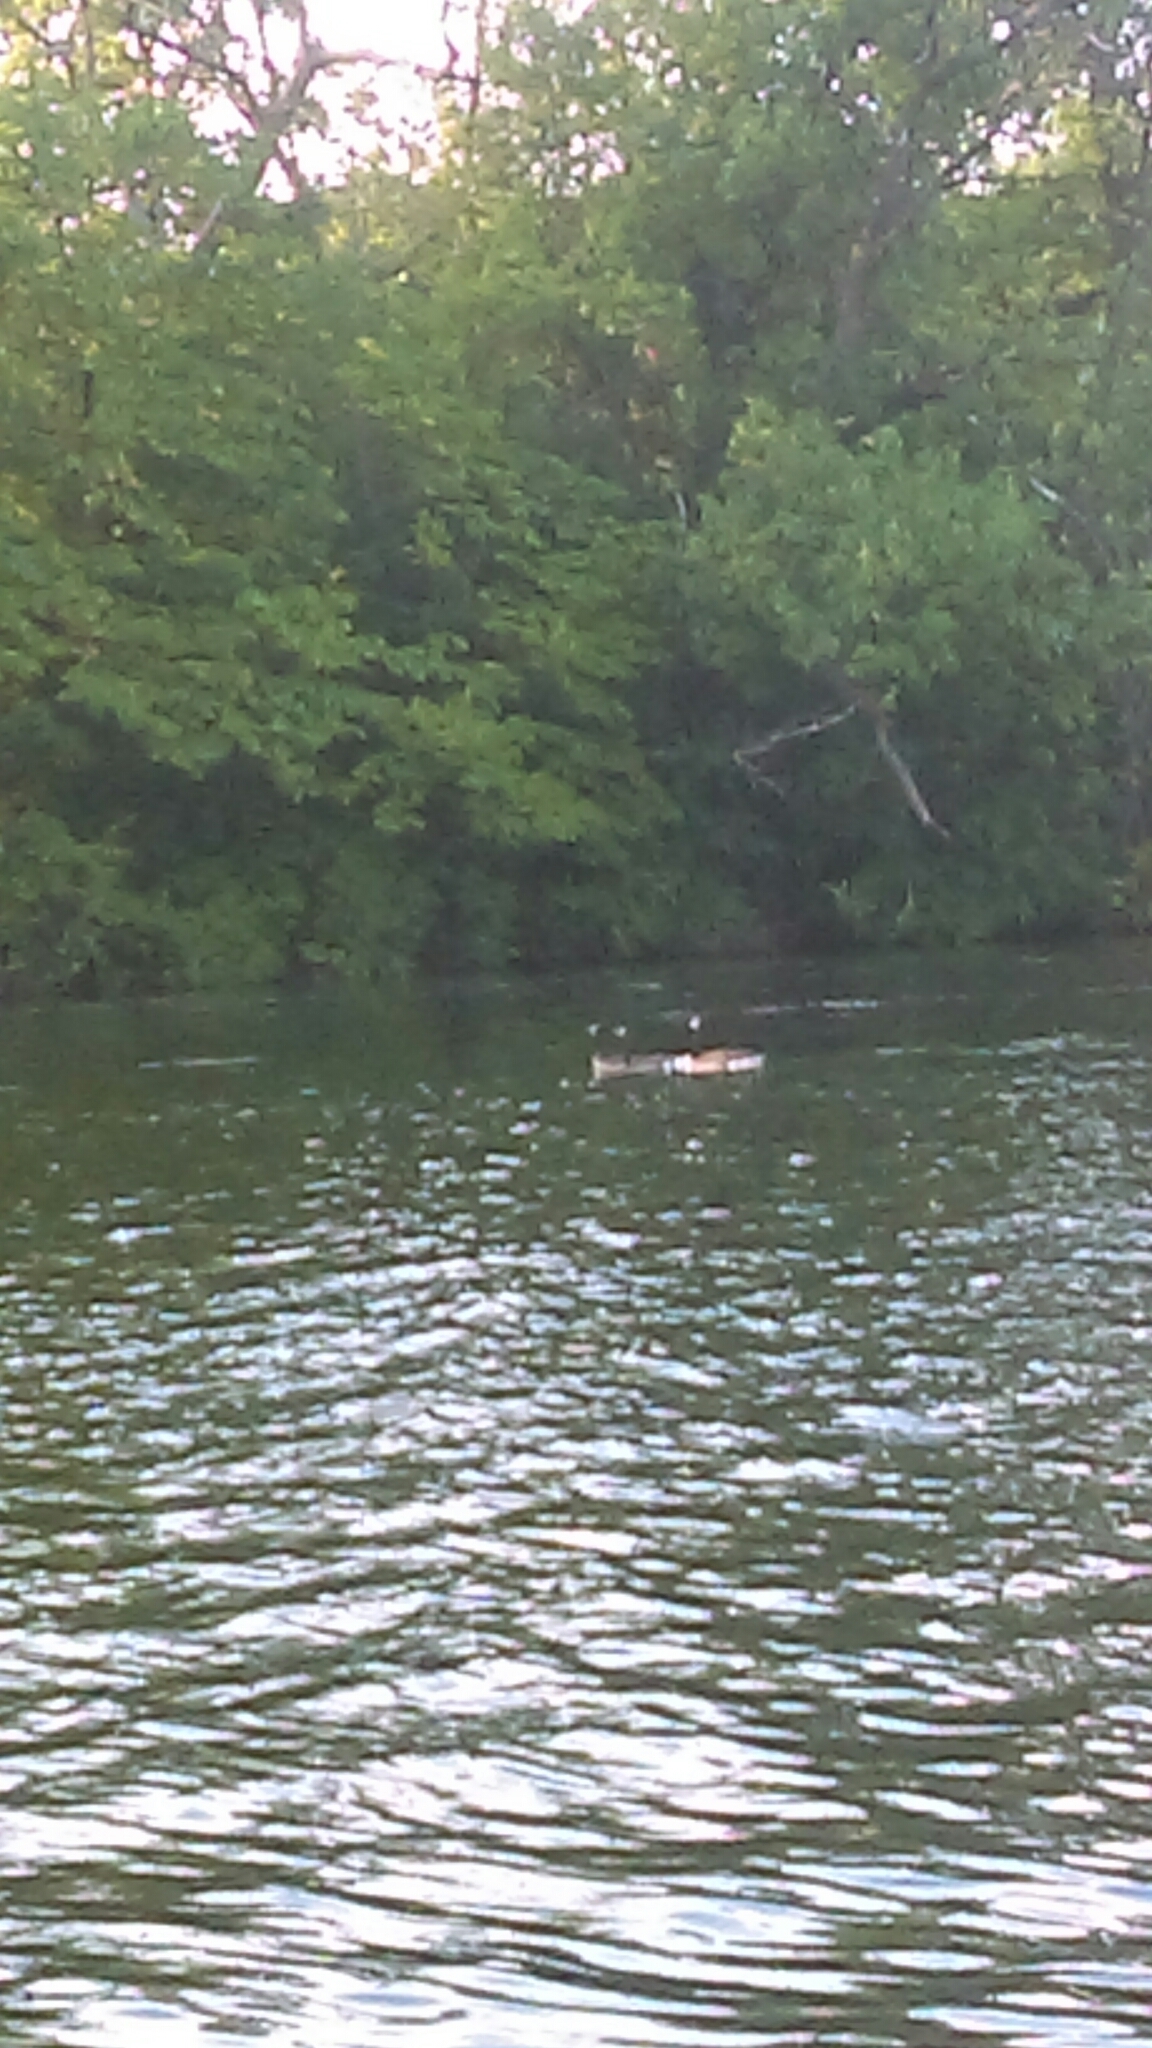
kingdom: Animalia
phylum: Chordata
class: Aves
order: Anseriformes
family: Anatidae
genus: Branta
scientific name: Branta canadensis
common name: Canada goose
